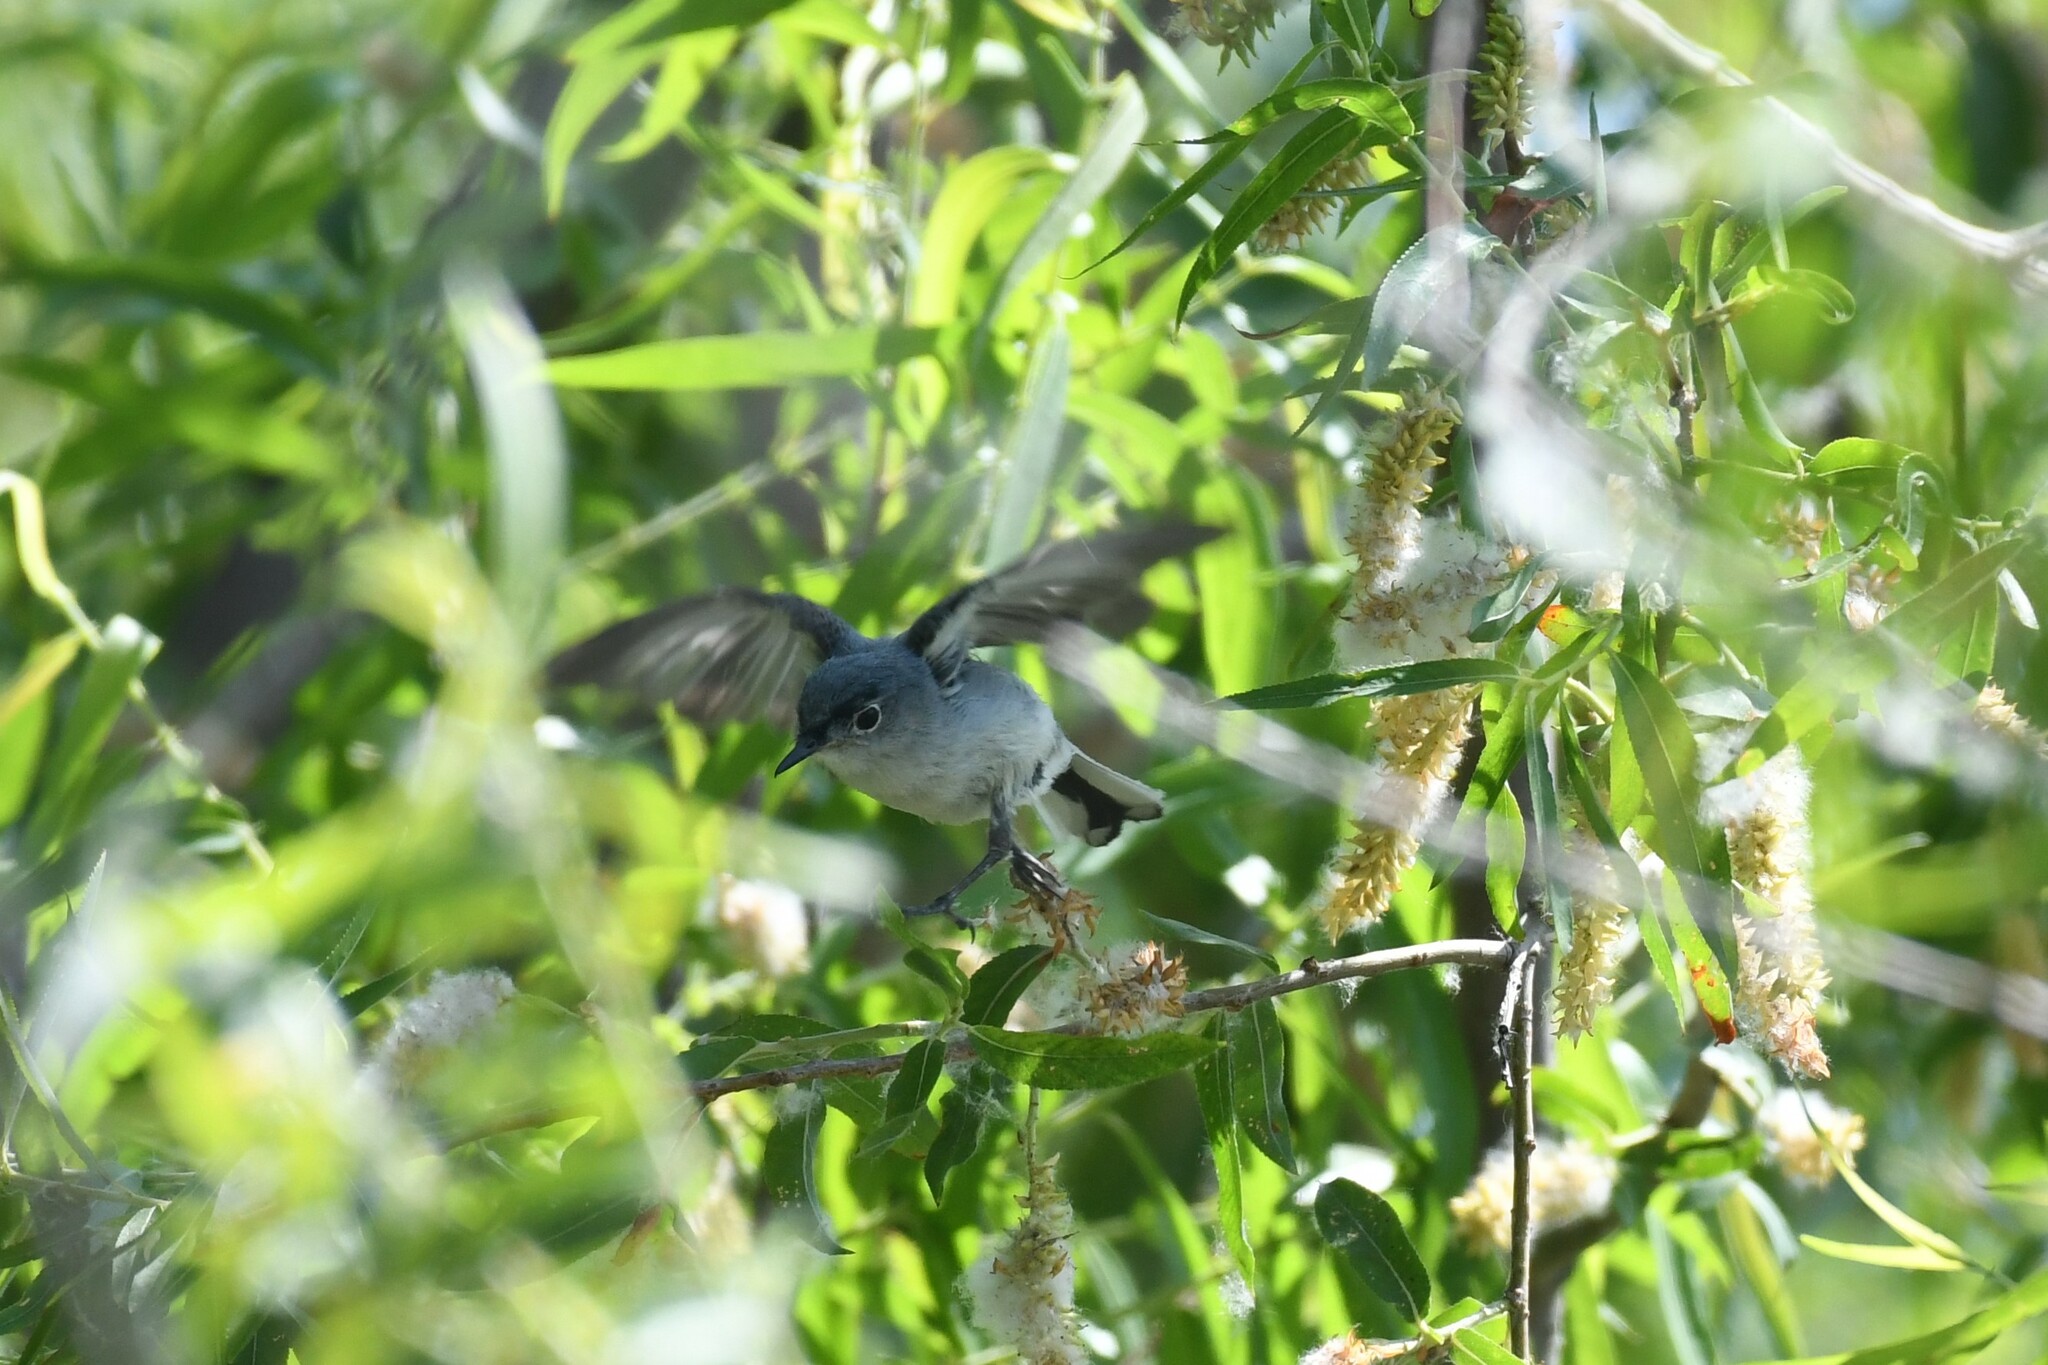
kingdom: Animalia
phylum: Chordata
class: Aves
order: Passeriformes
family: Polioptilidae
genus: Polioptila
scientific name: Polioptila caerulea
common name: Blue-gray gnatcatcher
